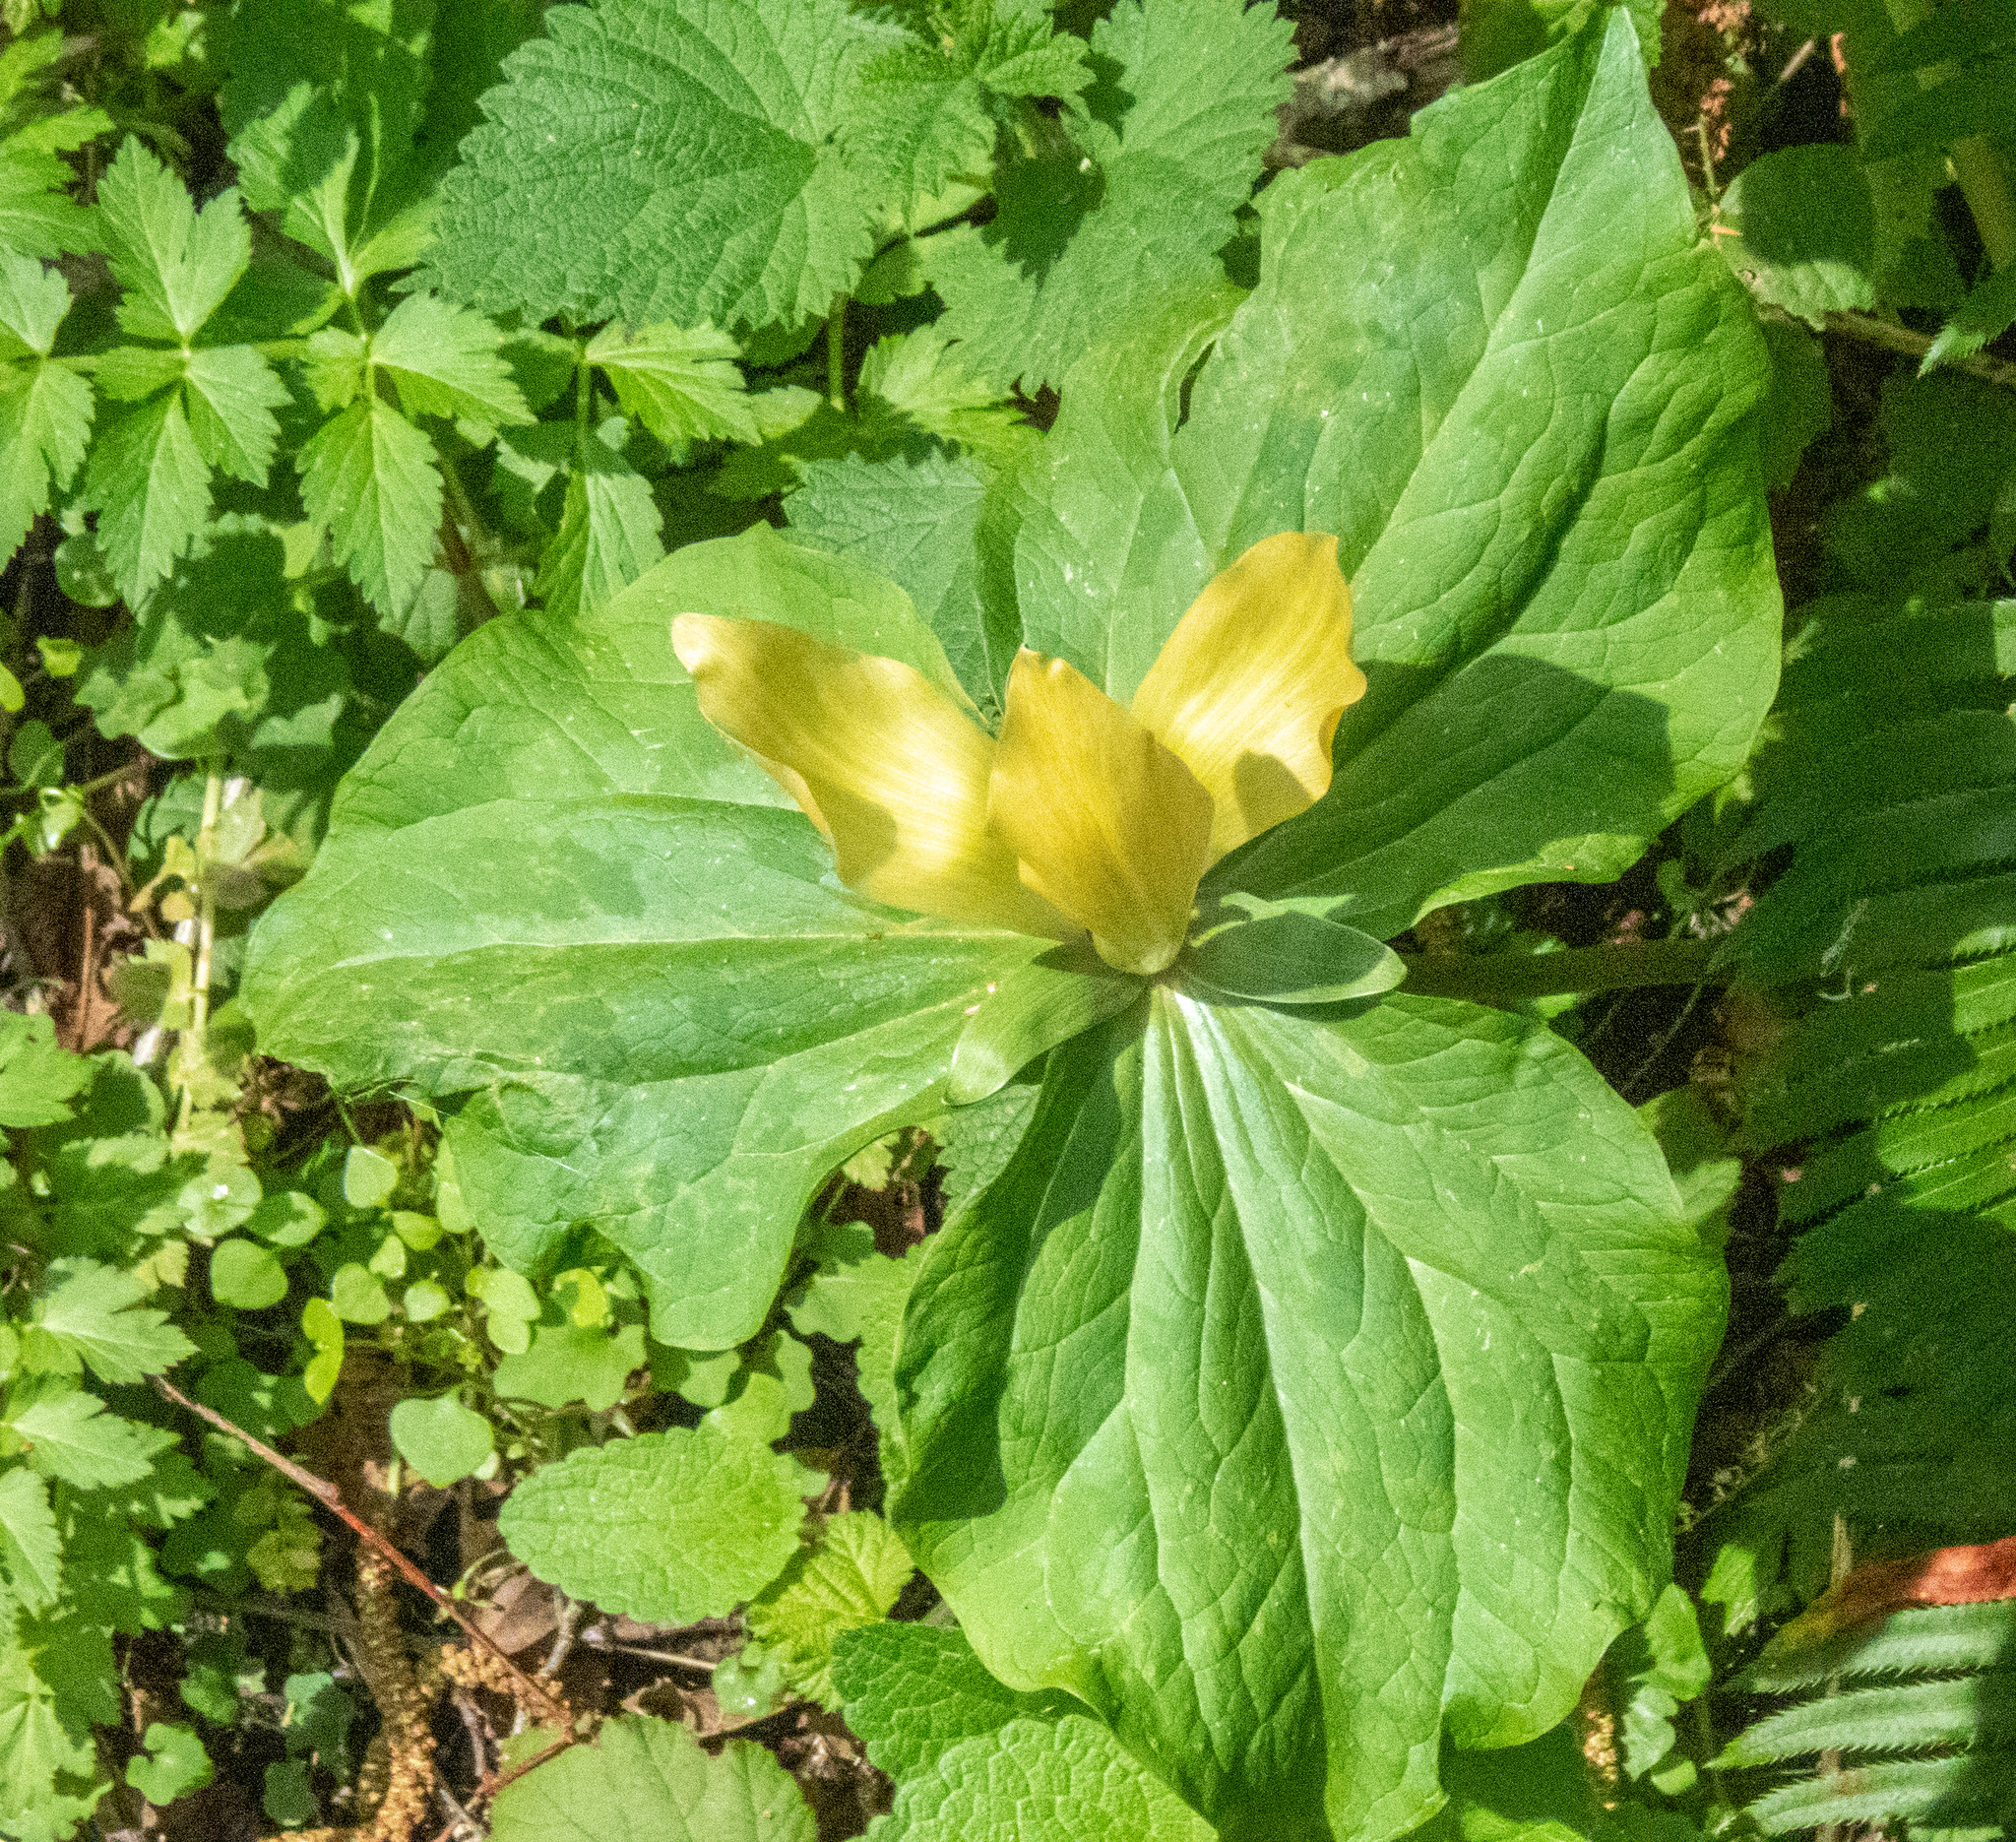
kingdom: Plantae
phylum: Tracheophyta
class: Liliopsida
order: Liliales
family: Melanthiaceae
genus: Trillium
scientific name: Trillium chloropetalum
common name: Giant trillium
